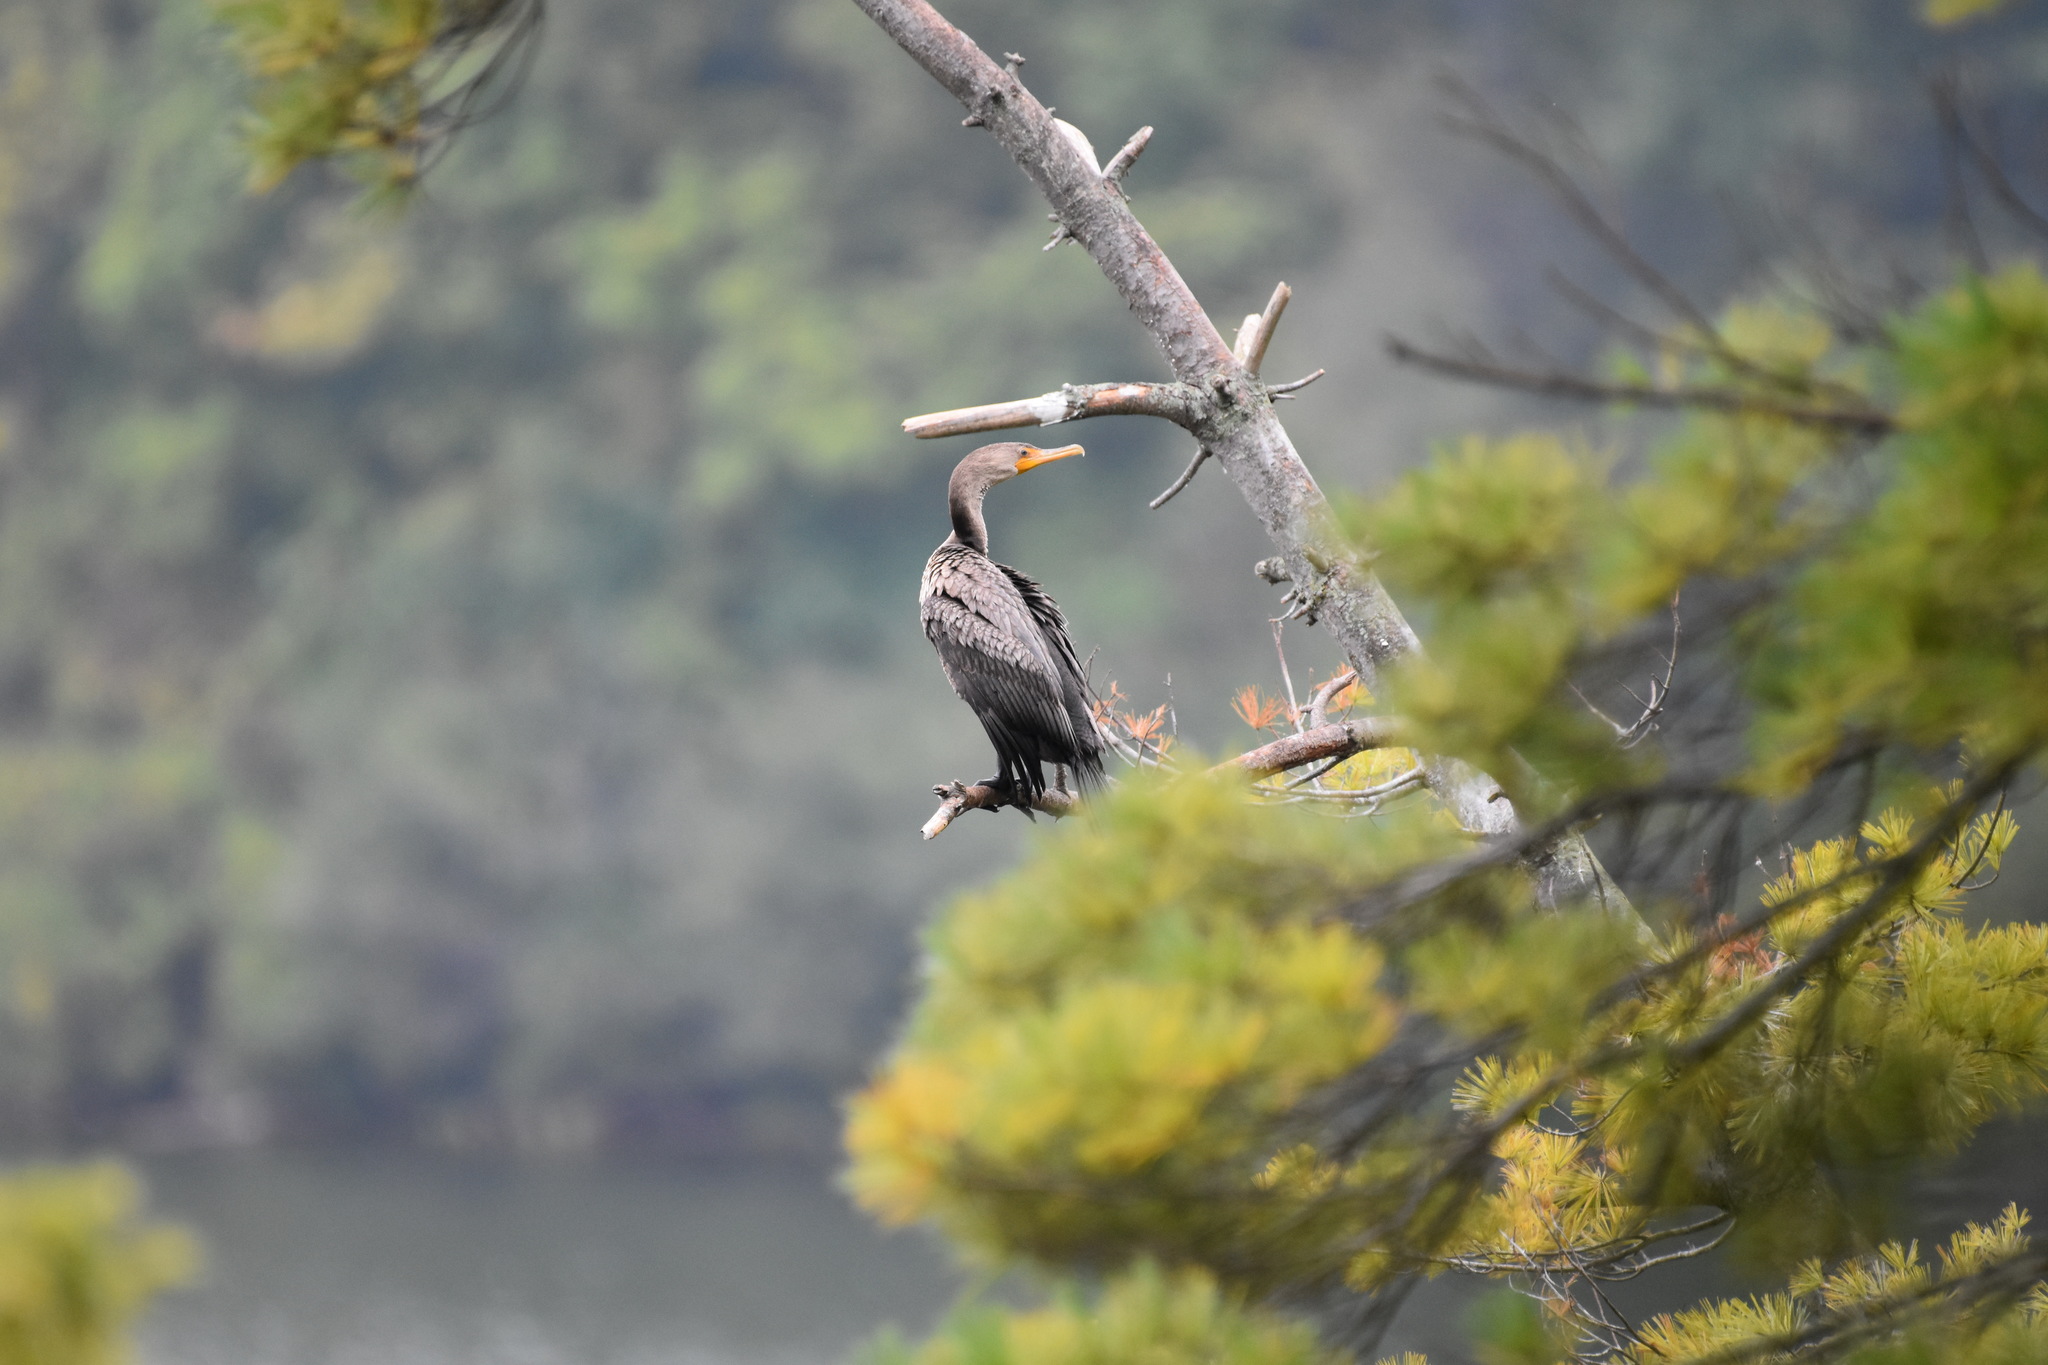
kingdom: Animalia
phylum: Chordata
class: Aves
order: Suliformes
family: Phalacrocoracidae
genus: Phalacrocorax
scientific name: Phalacrocorax auritus
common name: Double-crested cormorant
